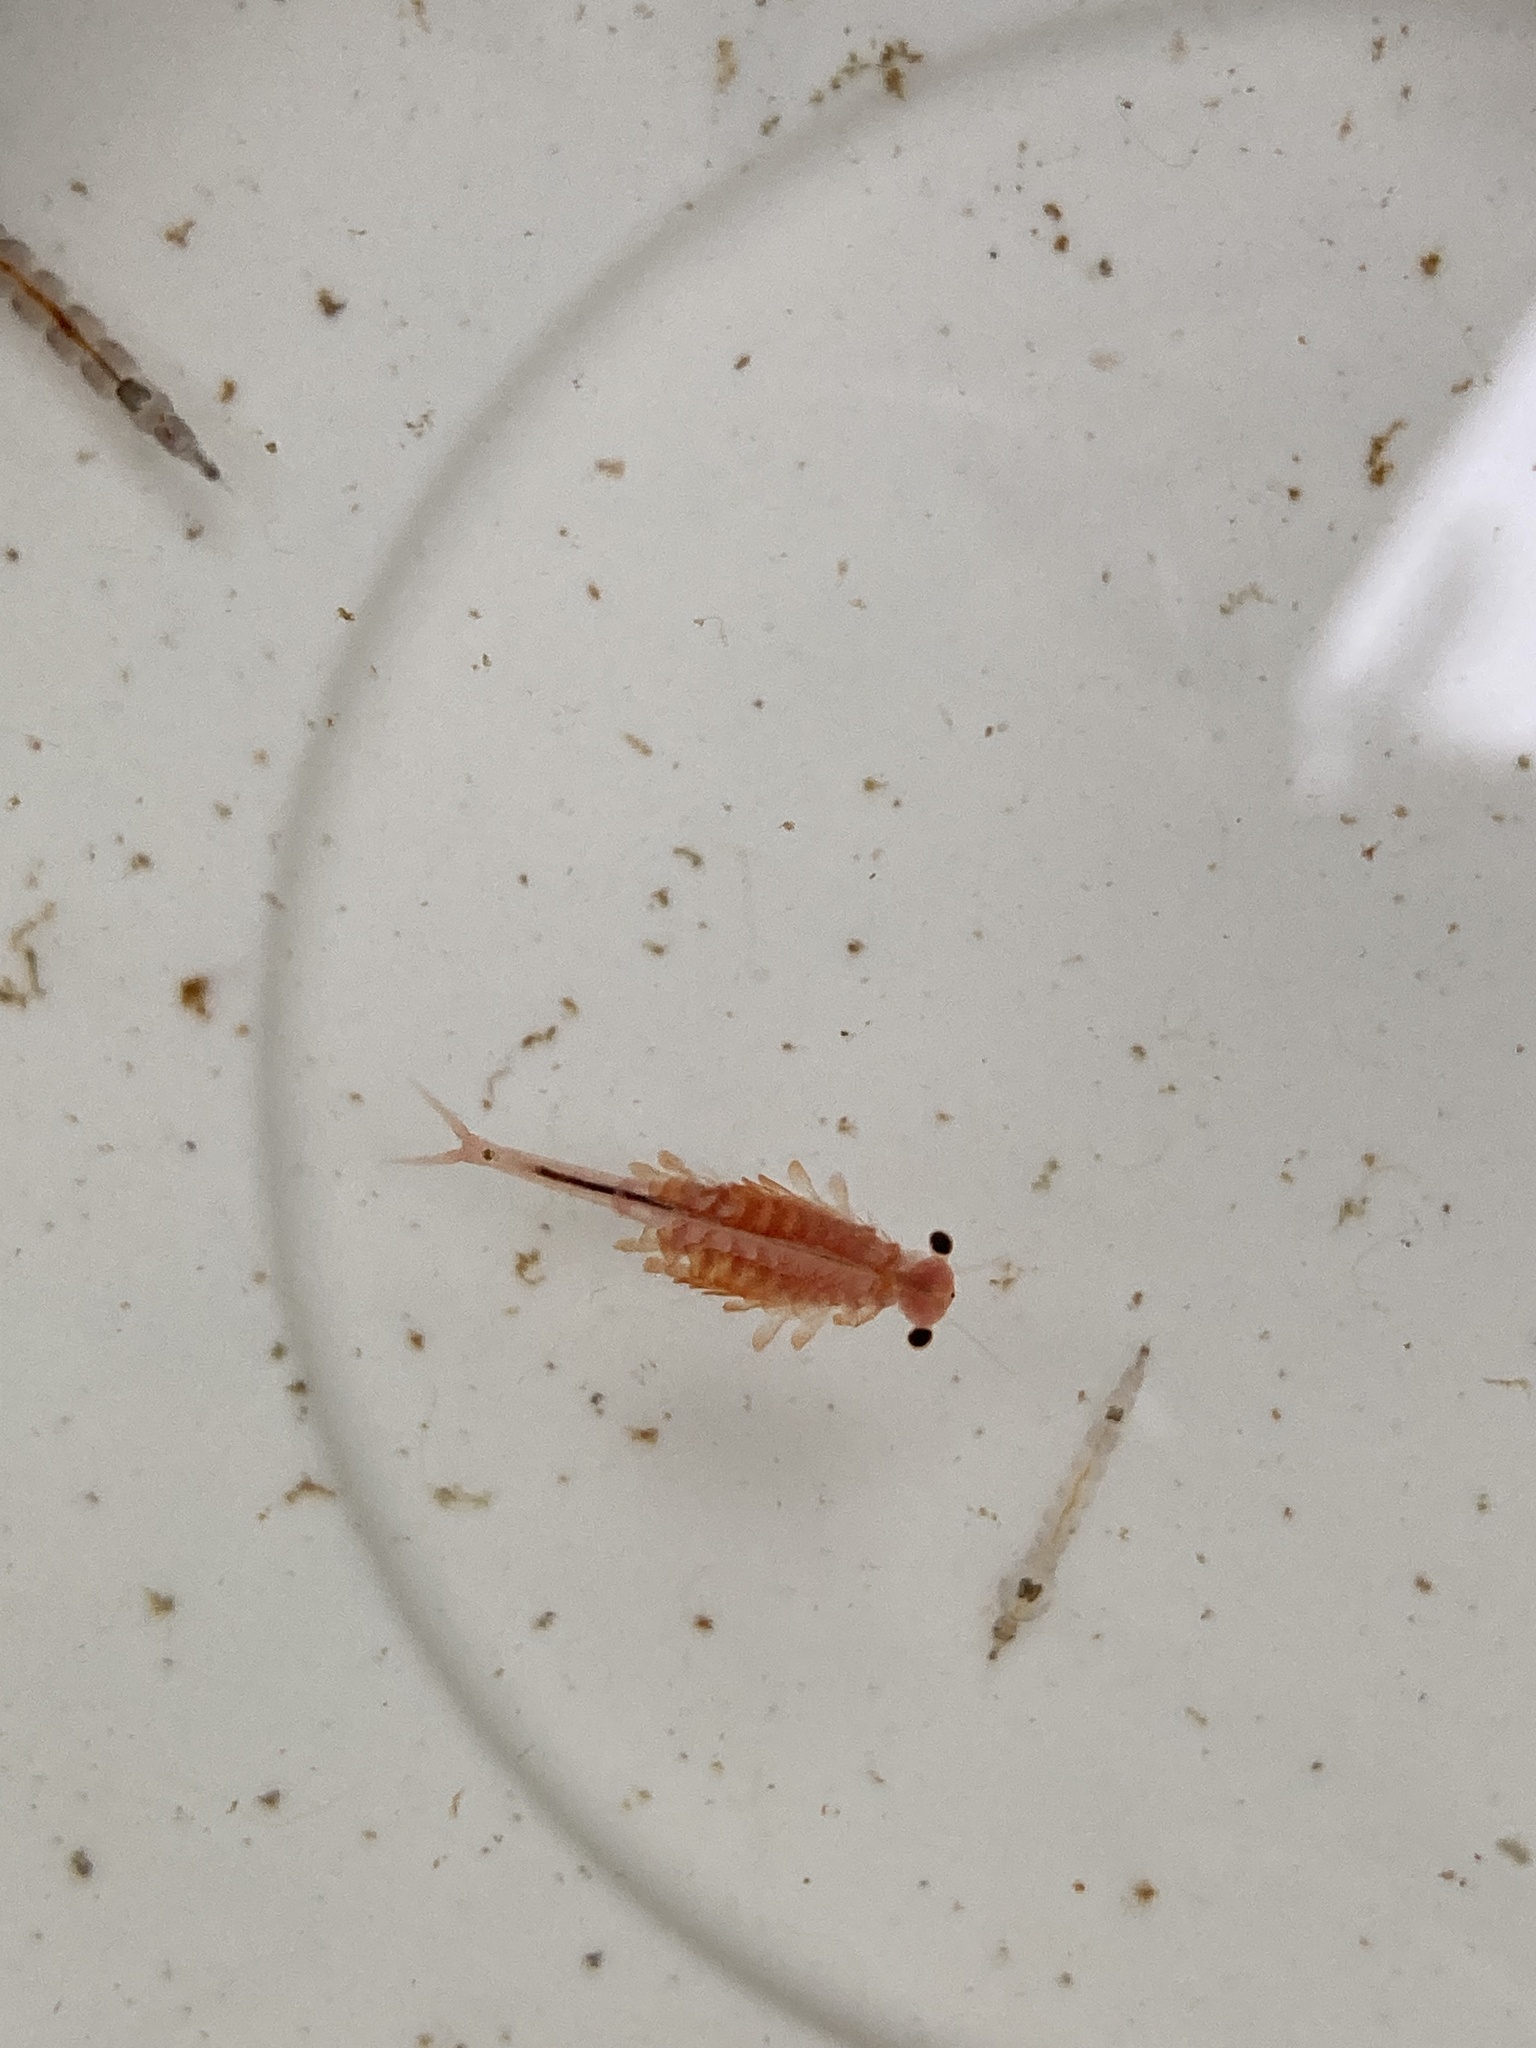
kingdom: Animalia
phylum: Arthropoda
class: Branchiopoda
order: Anostraca
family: Chirocephalidae
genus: Eubranchipus
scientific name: Eubranchipus oregonus
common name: Oregon fairy shrimp
